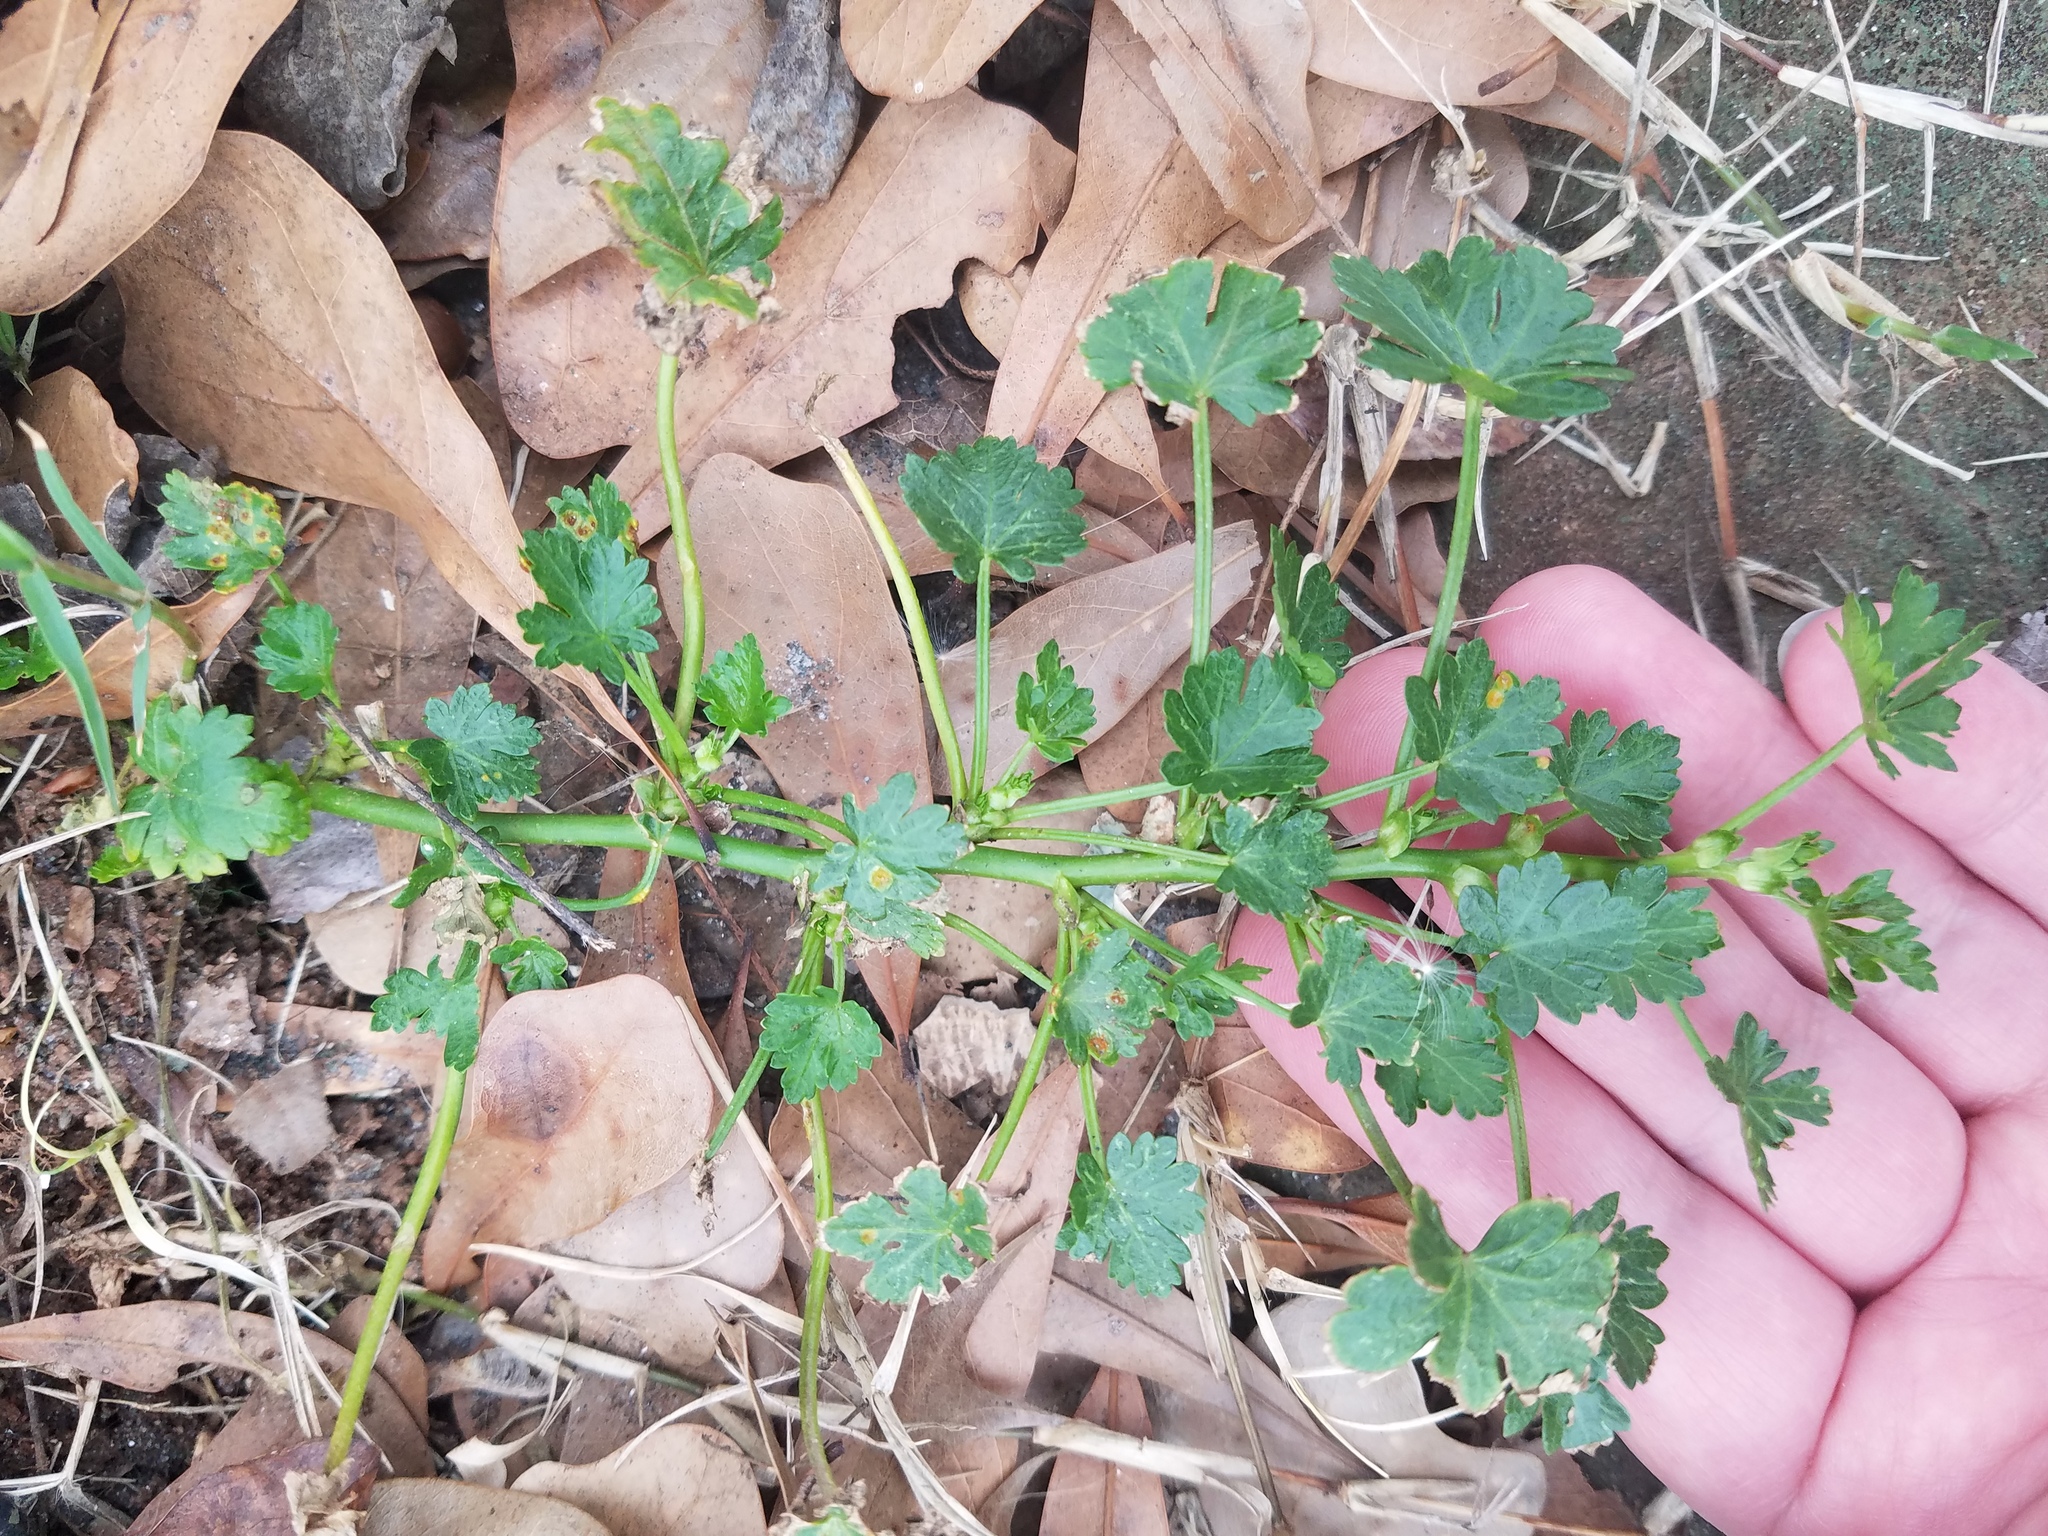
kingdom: Plantae
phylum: Tracheophyta
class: Magnoliopsida
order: Malvales
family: Malvaceae
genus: Modiola
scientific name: Modiola caroliniana
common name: Carolina bristlemallow
